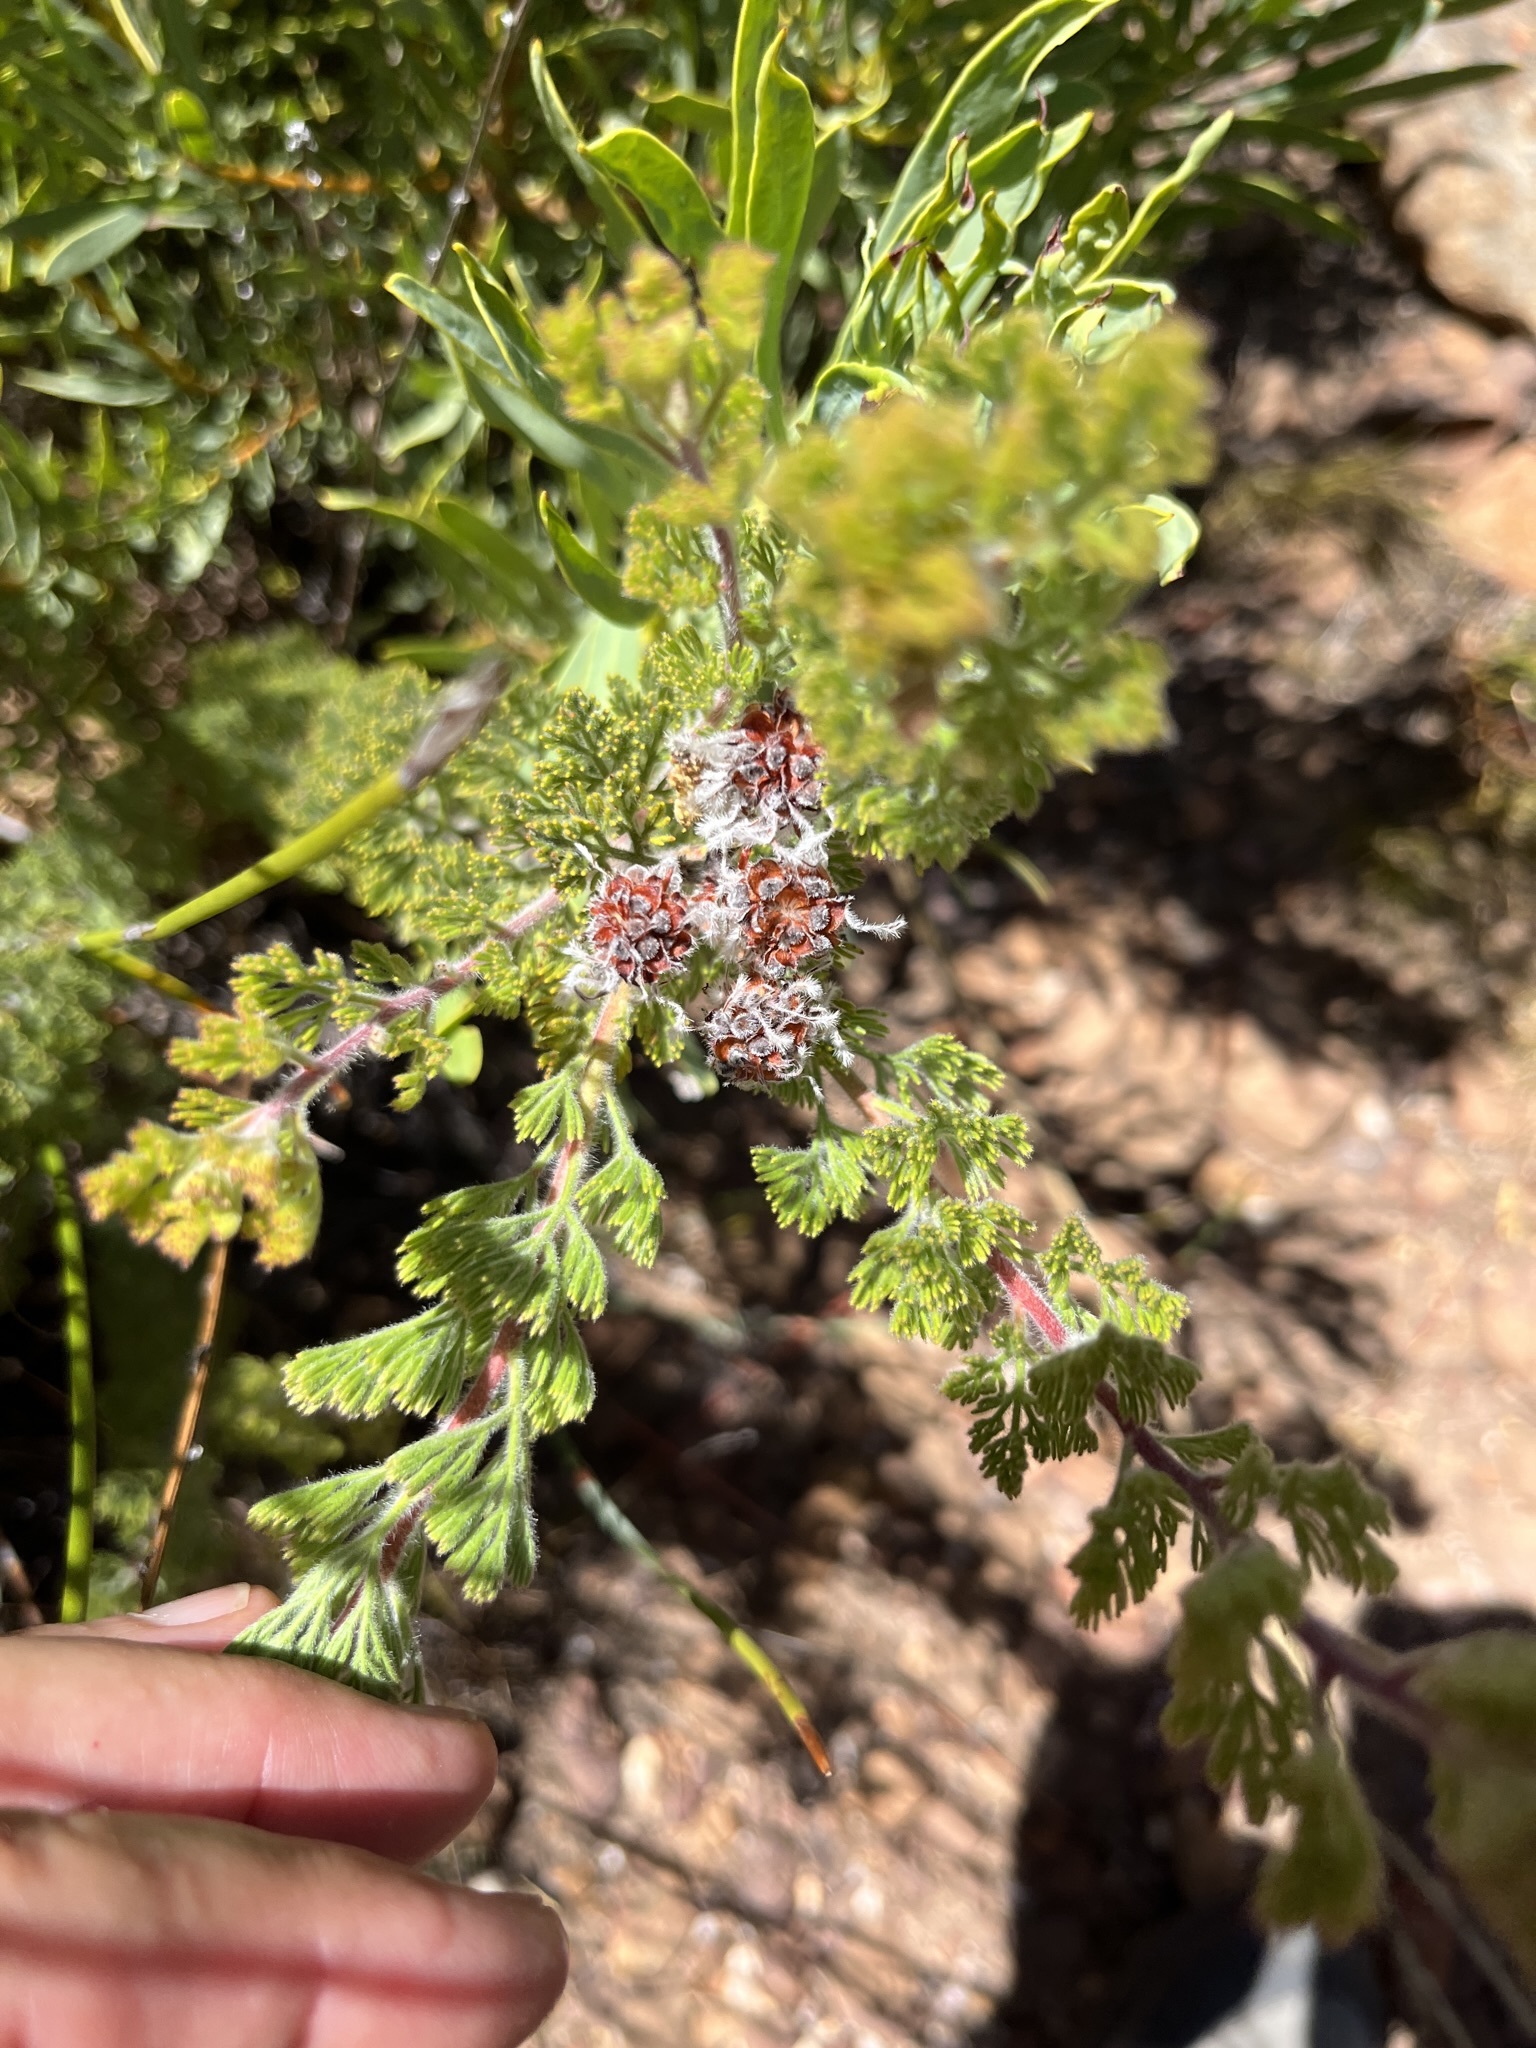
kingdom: Plantae
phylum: Tracheophyta
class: Magnoliopsida
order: Proteales
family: Proteaceae
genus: Serruria
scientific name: Serruria aitonii
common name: Marshmallow spiderhead
